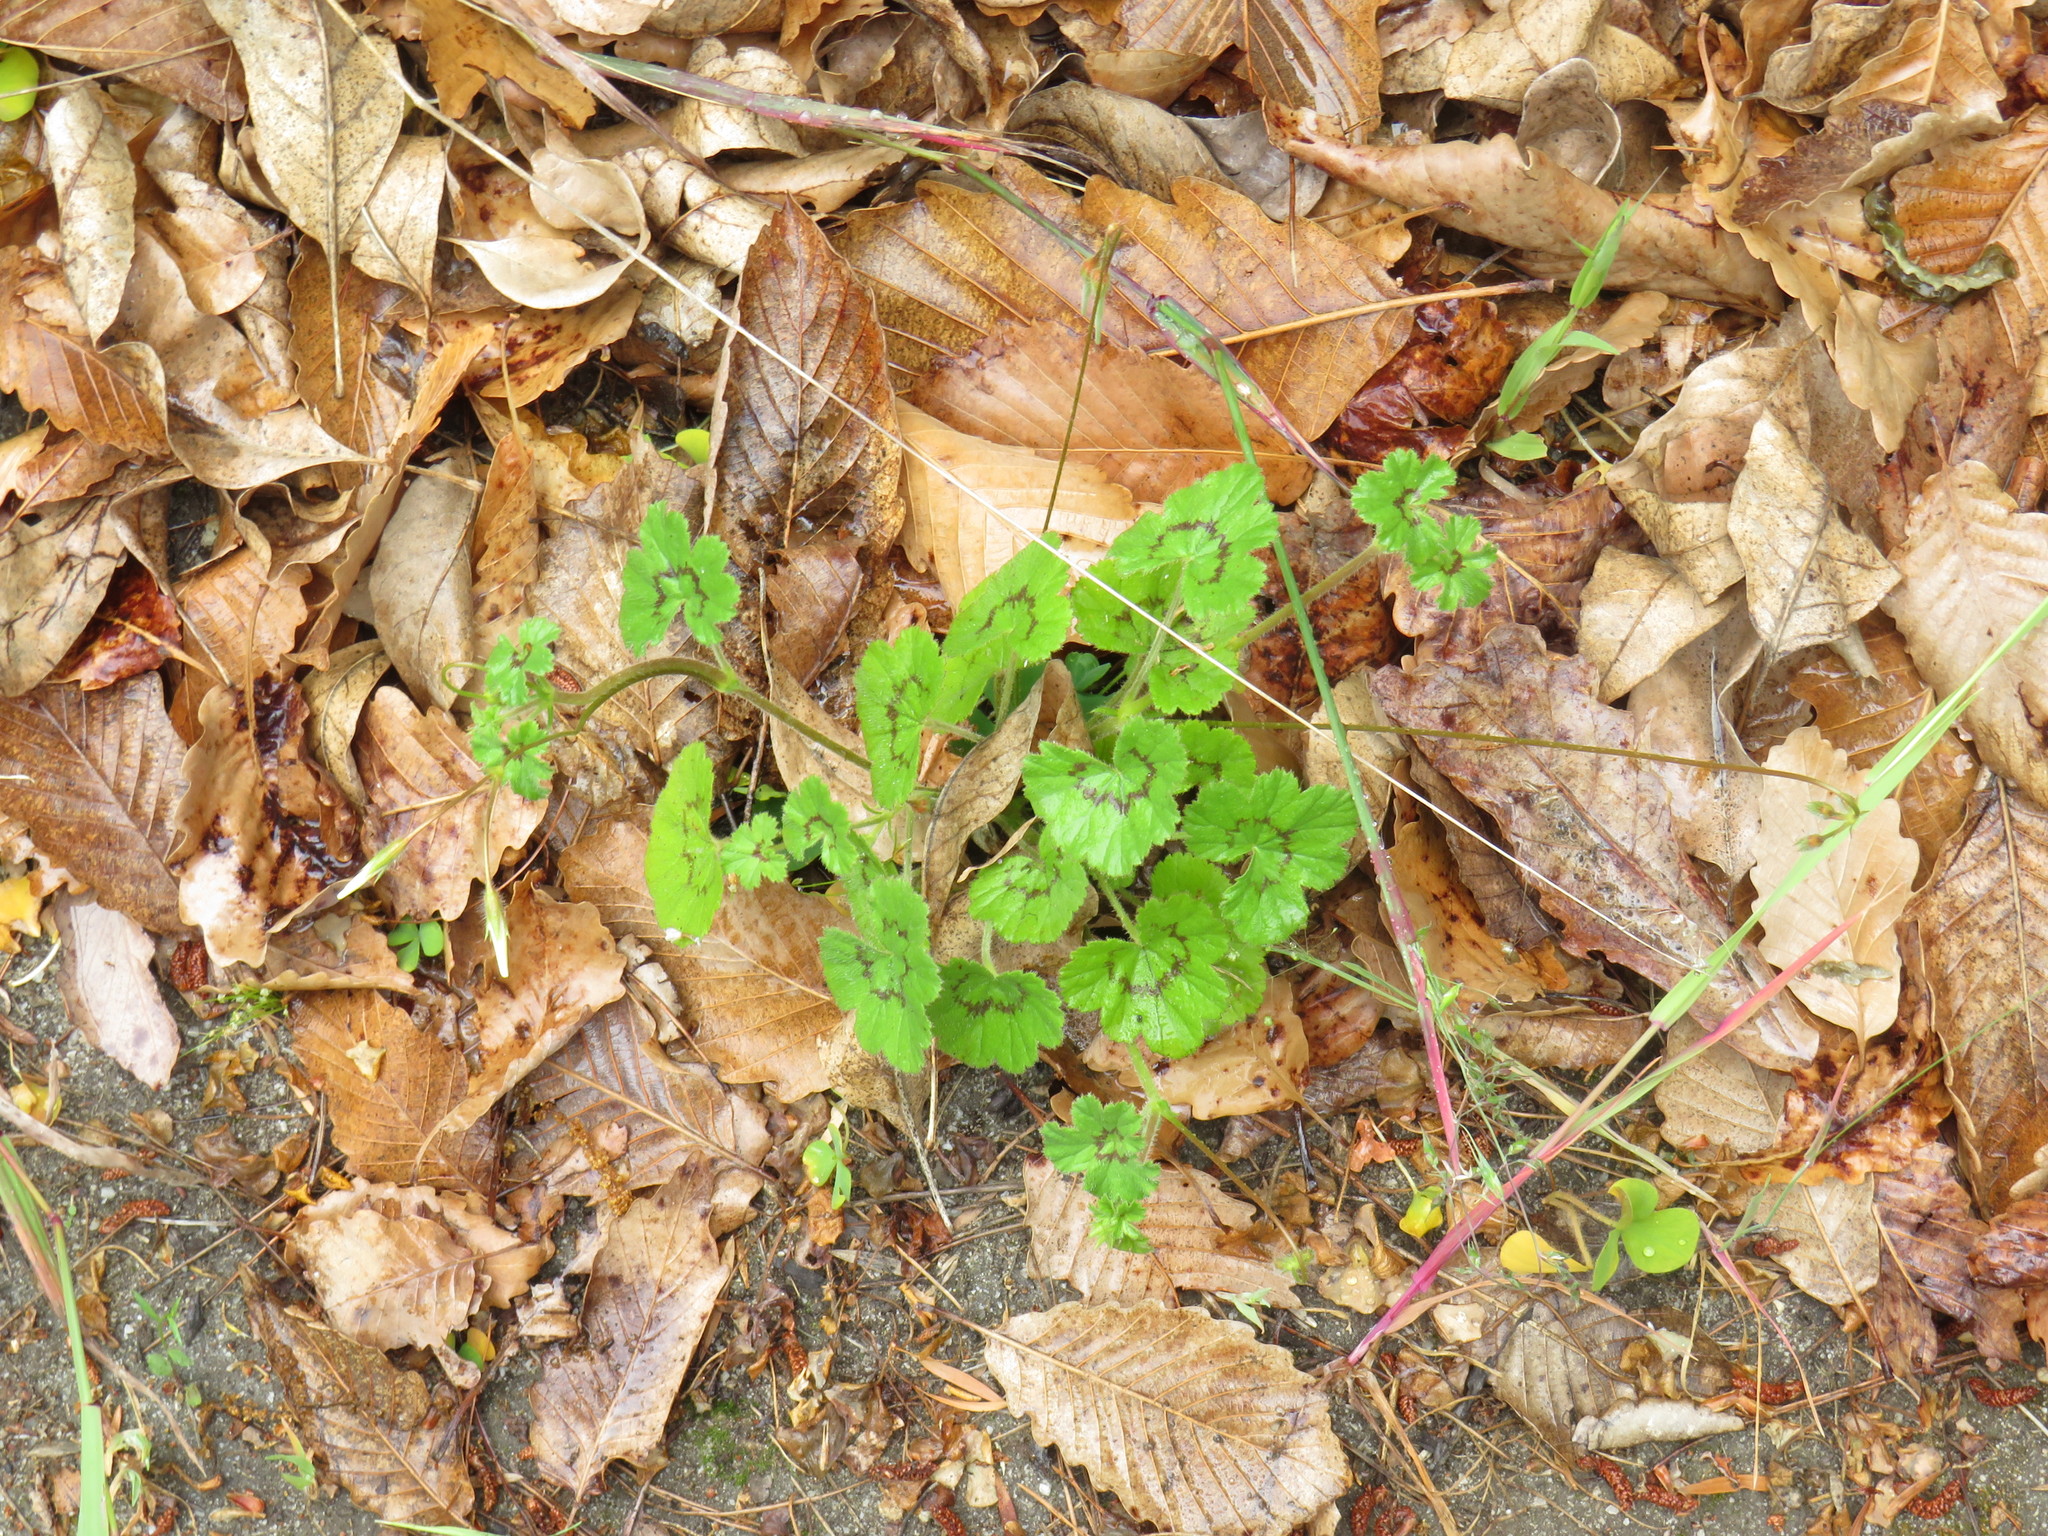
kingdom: Plantae
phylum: Tracheophyta
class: Magnoliopsida
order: Geraniales
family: Geraniaceae
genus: Pelargonium
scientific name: Pelargonium elongatum
